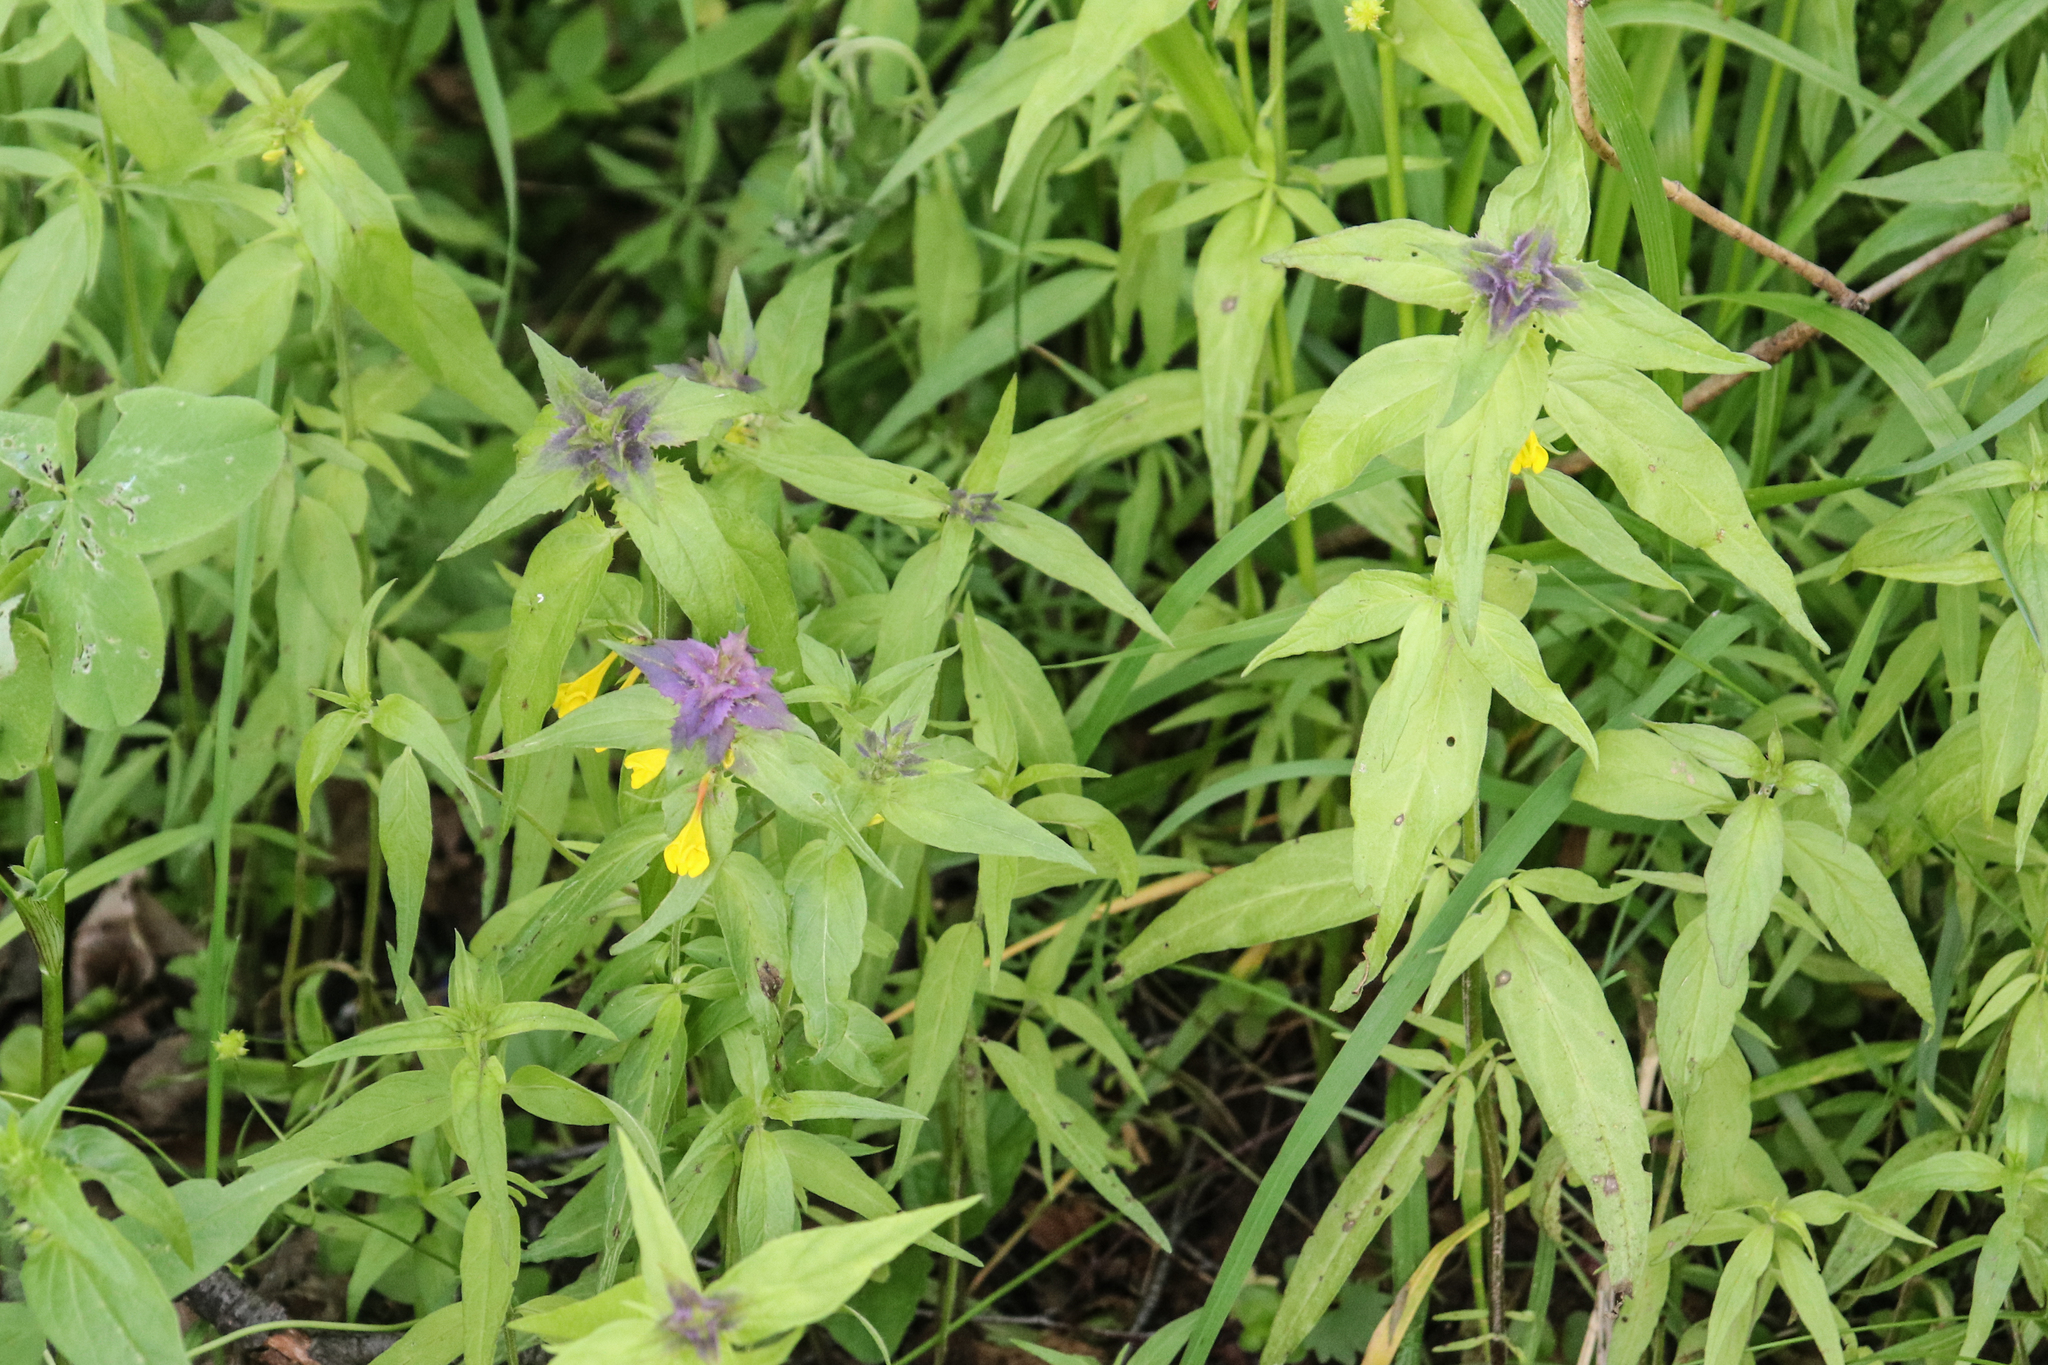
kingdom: Plantae
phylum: Tracheophyta
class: Magnoliopsida
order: Lamiales
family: Orobanchaceae
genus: Melampyrum
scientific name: Melampyrum nemorosum
